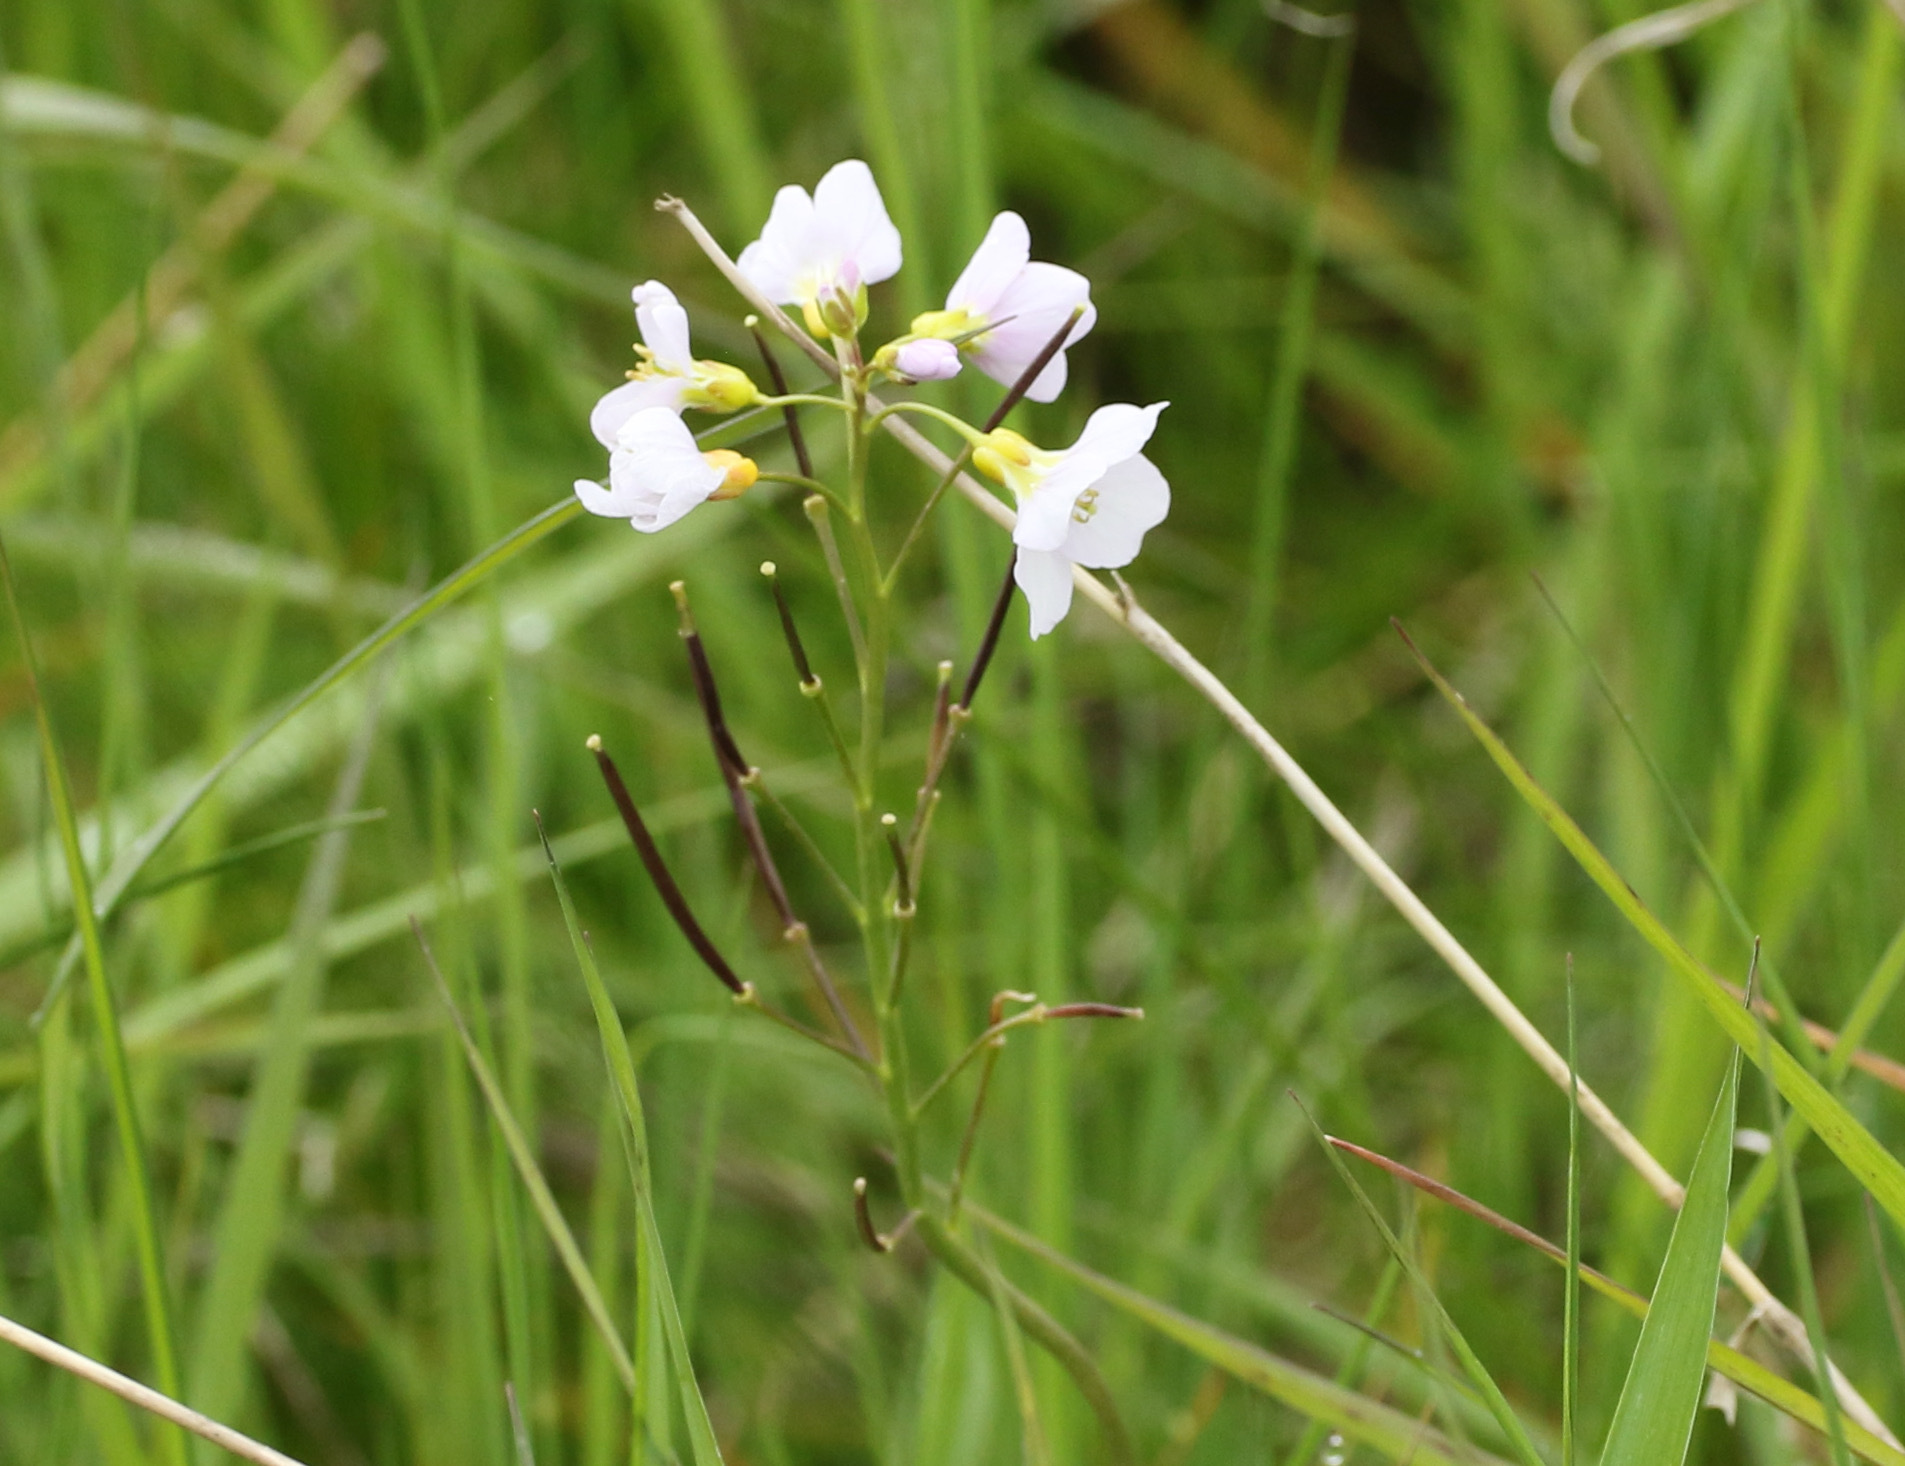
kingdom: Plantae
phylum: Tracheophyta
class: Magnoliopsida
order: Brassicales
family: Brassicaceae
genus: Cardamine
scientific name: Cardamine pratensis
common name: Cuckoo flower
